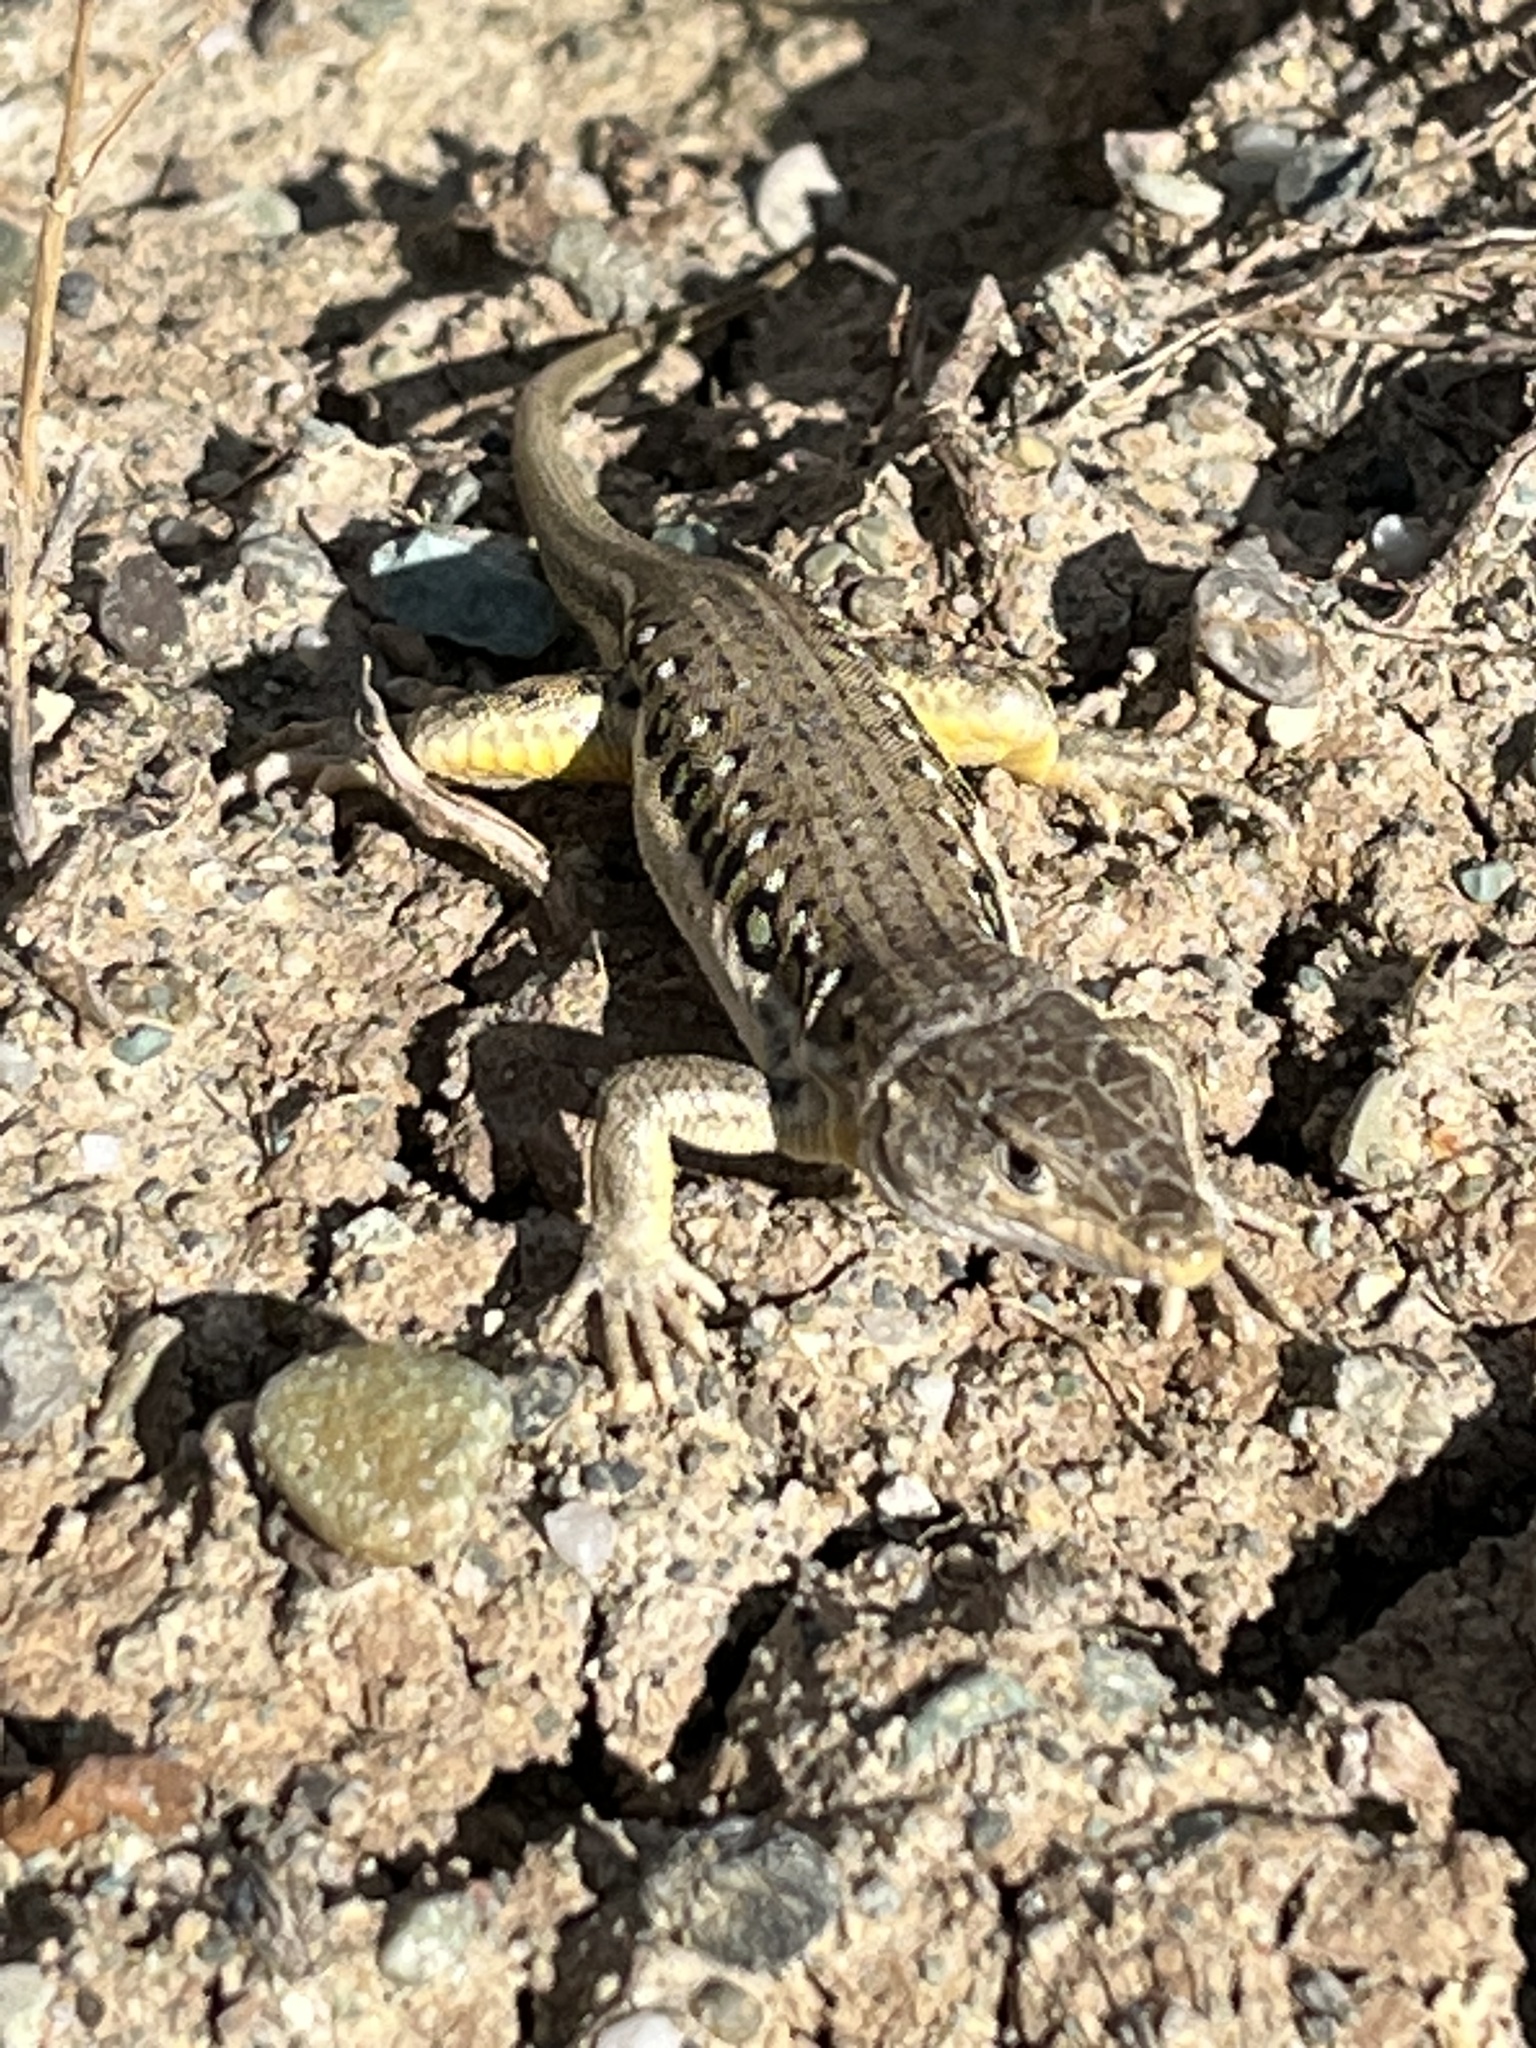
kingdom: Animalia
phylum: Chordata
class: Squamata
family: Lacertidae
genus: Eremias
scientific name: Eremias velox
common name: Central asian racerunner
